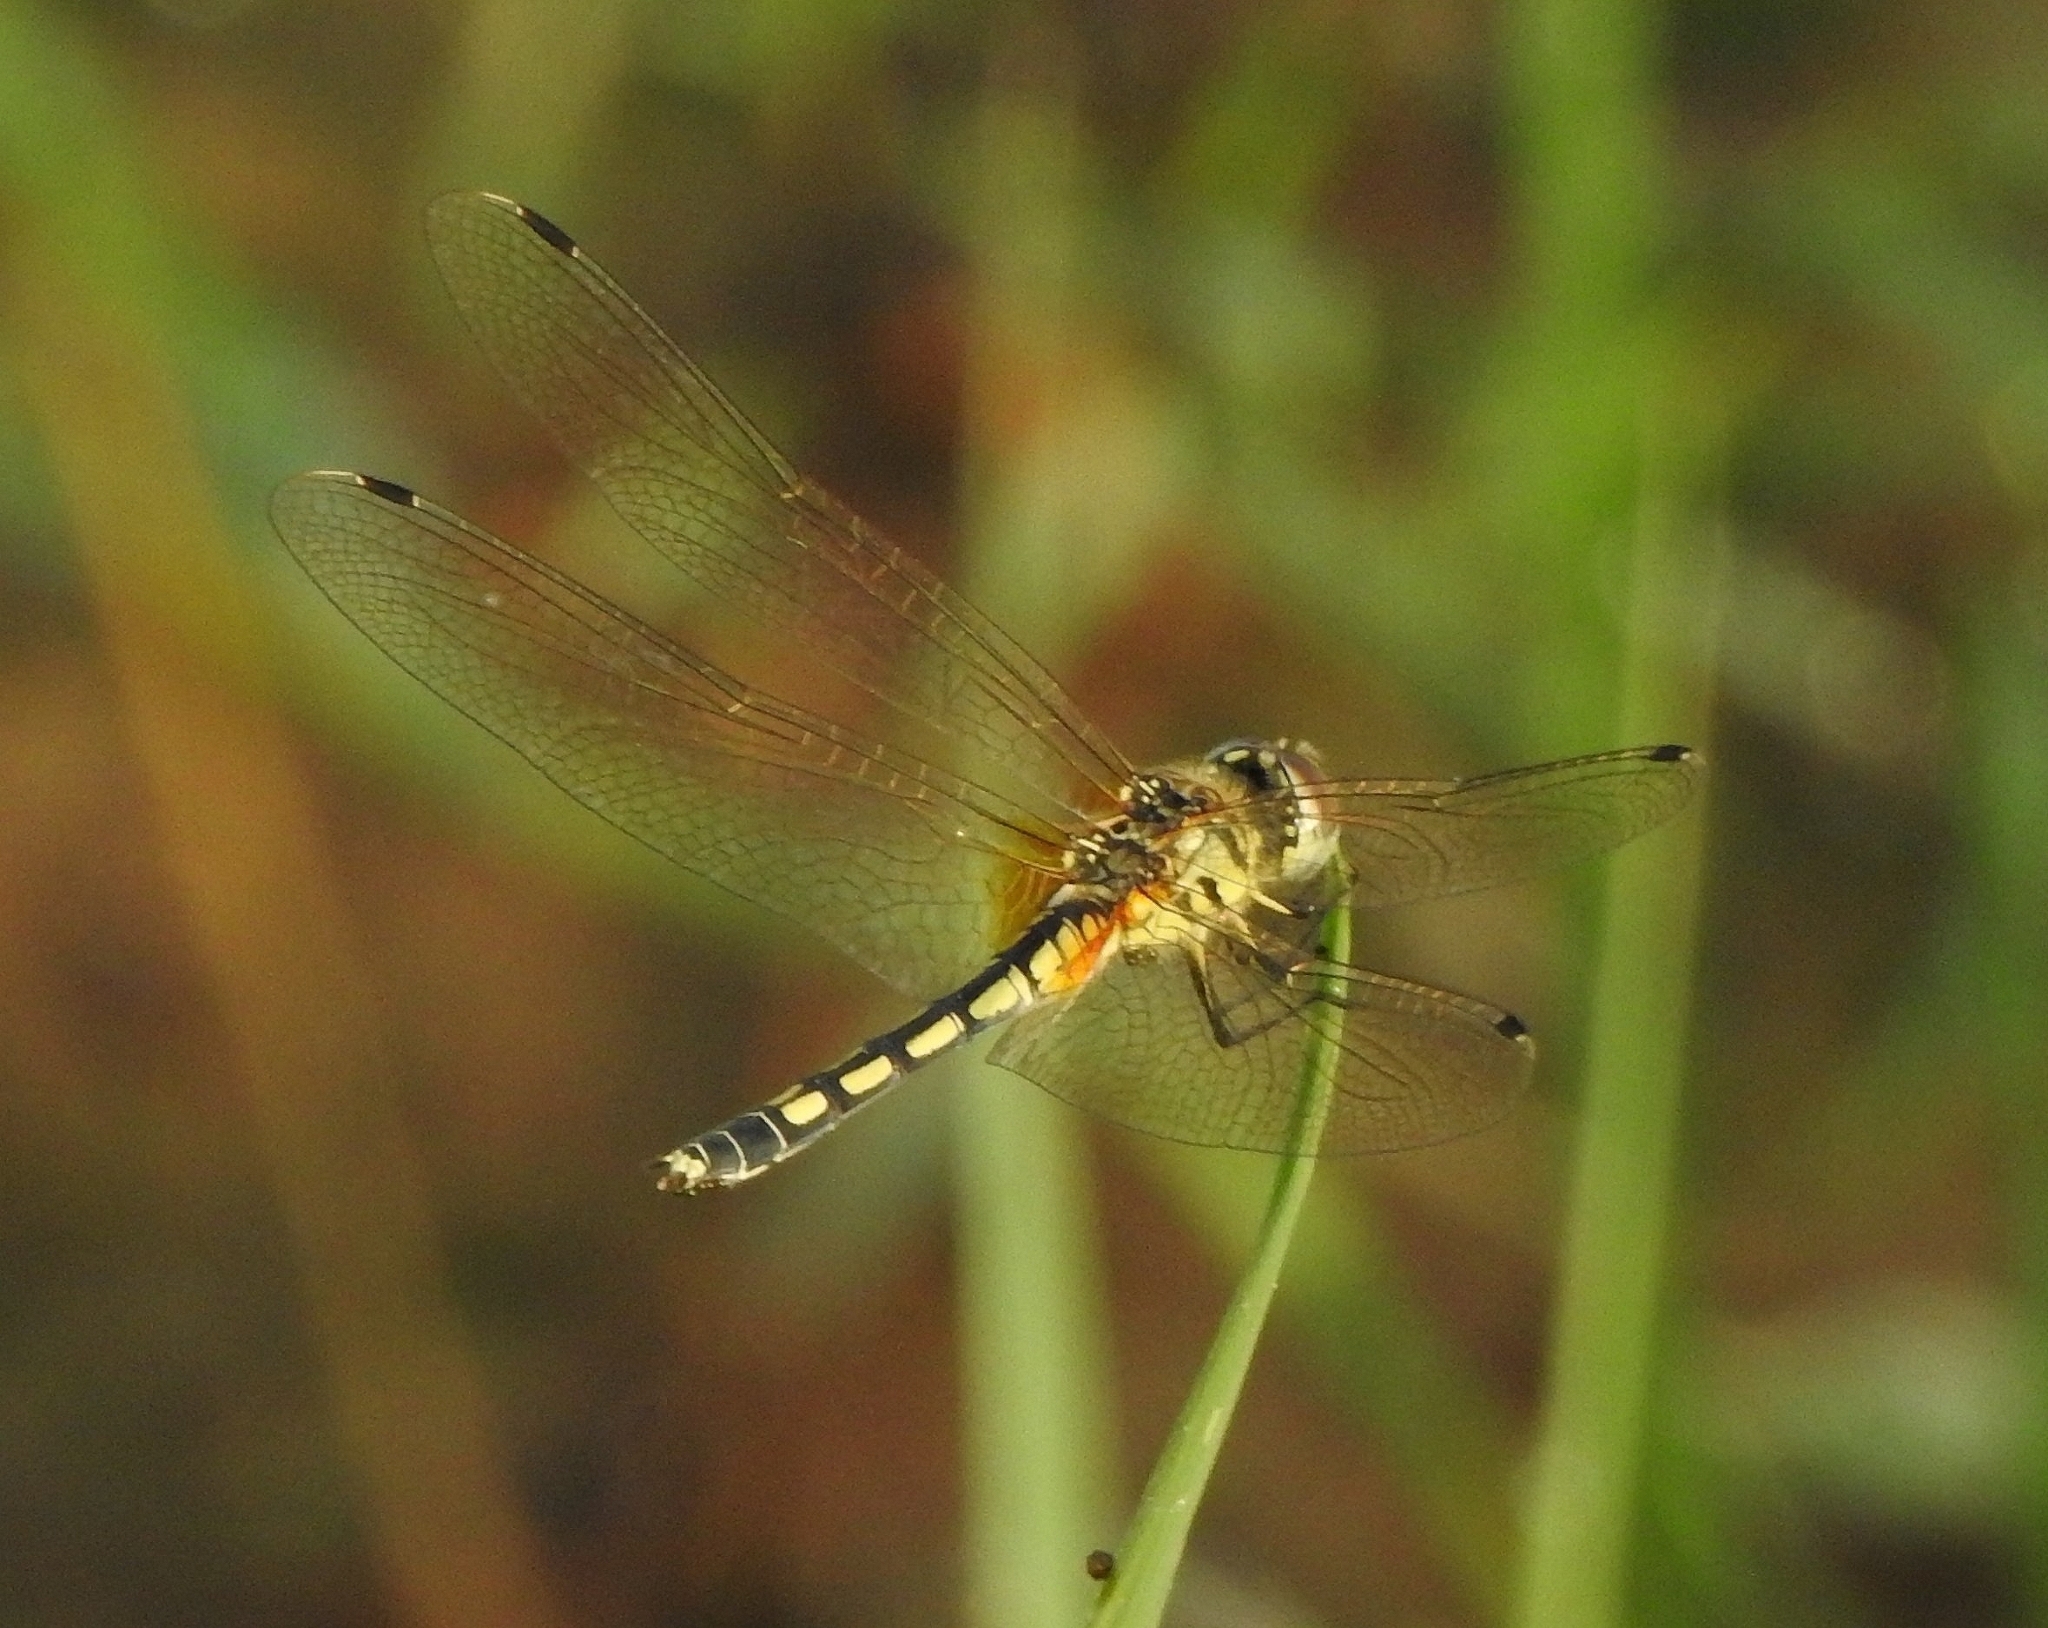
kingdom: Animalia
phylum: Arthropoda
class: Insecta
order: Odonata
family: Libellulidae
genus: Trithemis
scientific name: Trithemis pallidinervis
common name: Dancing dropwing
